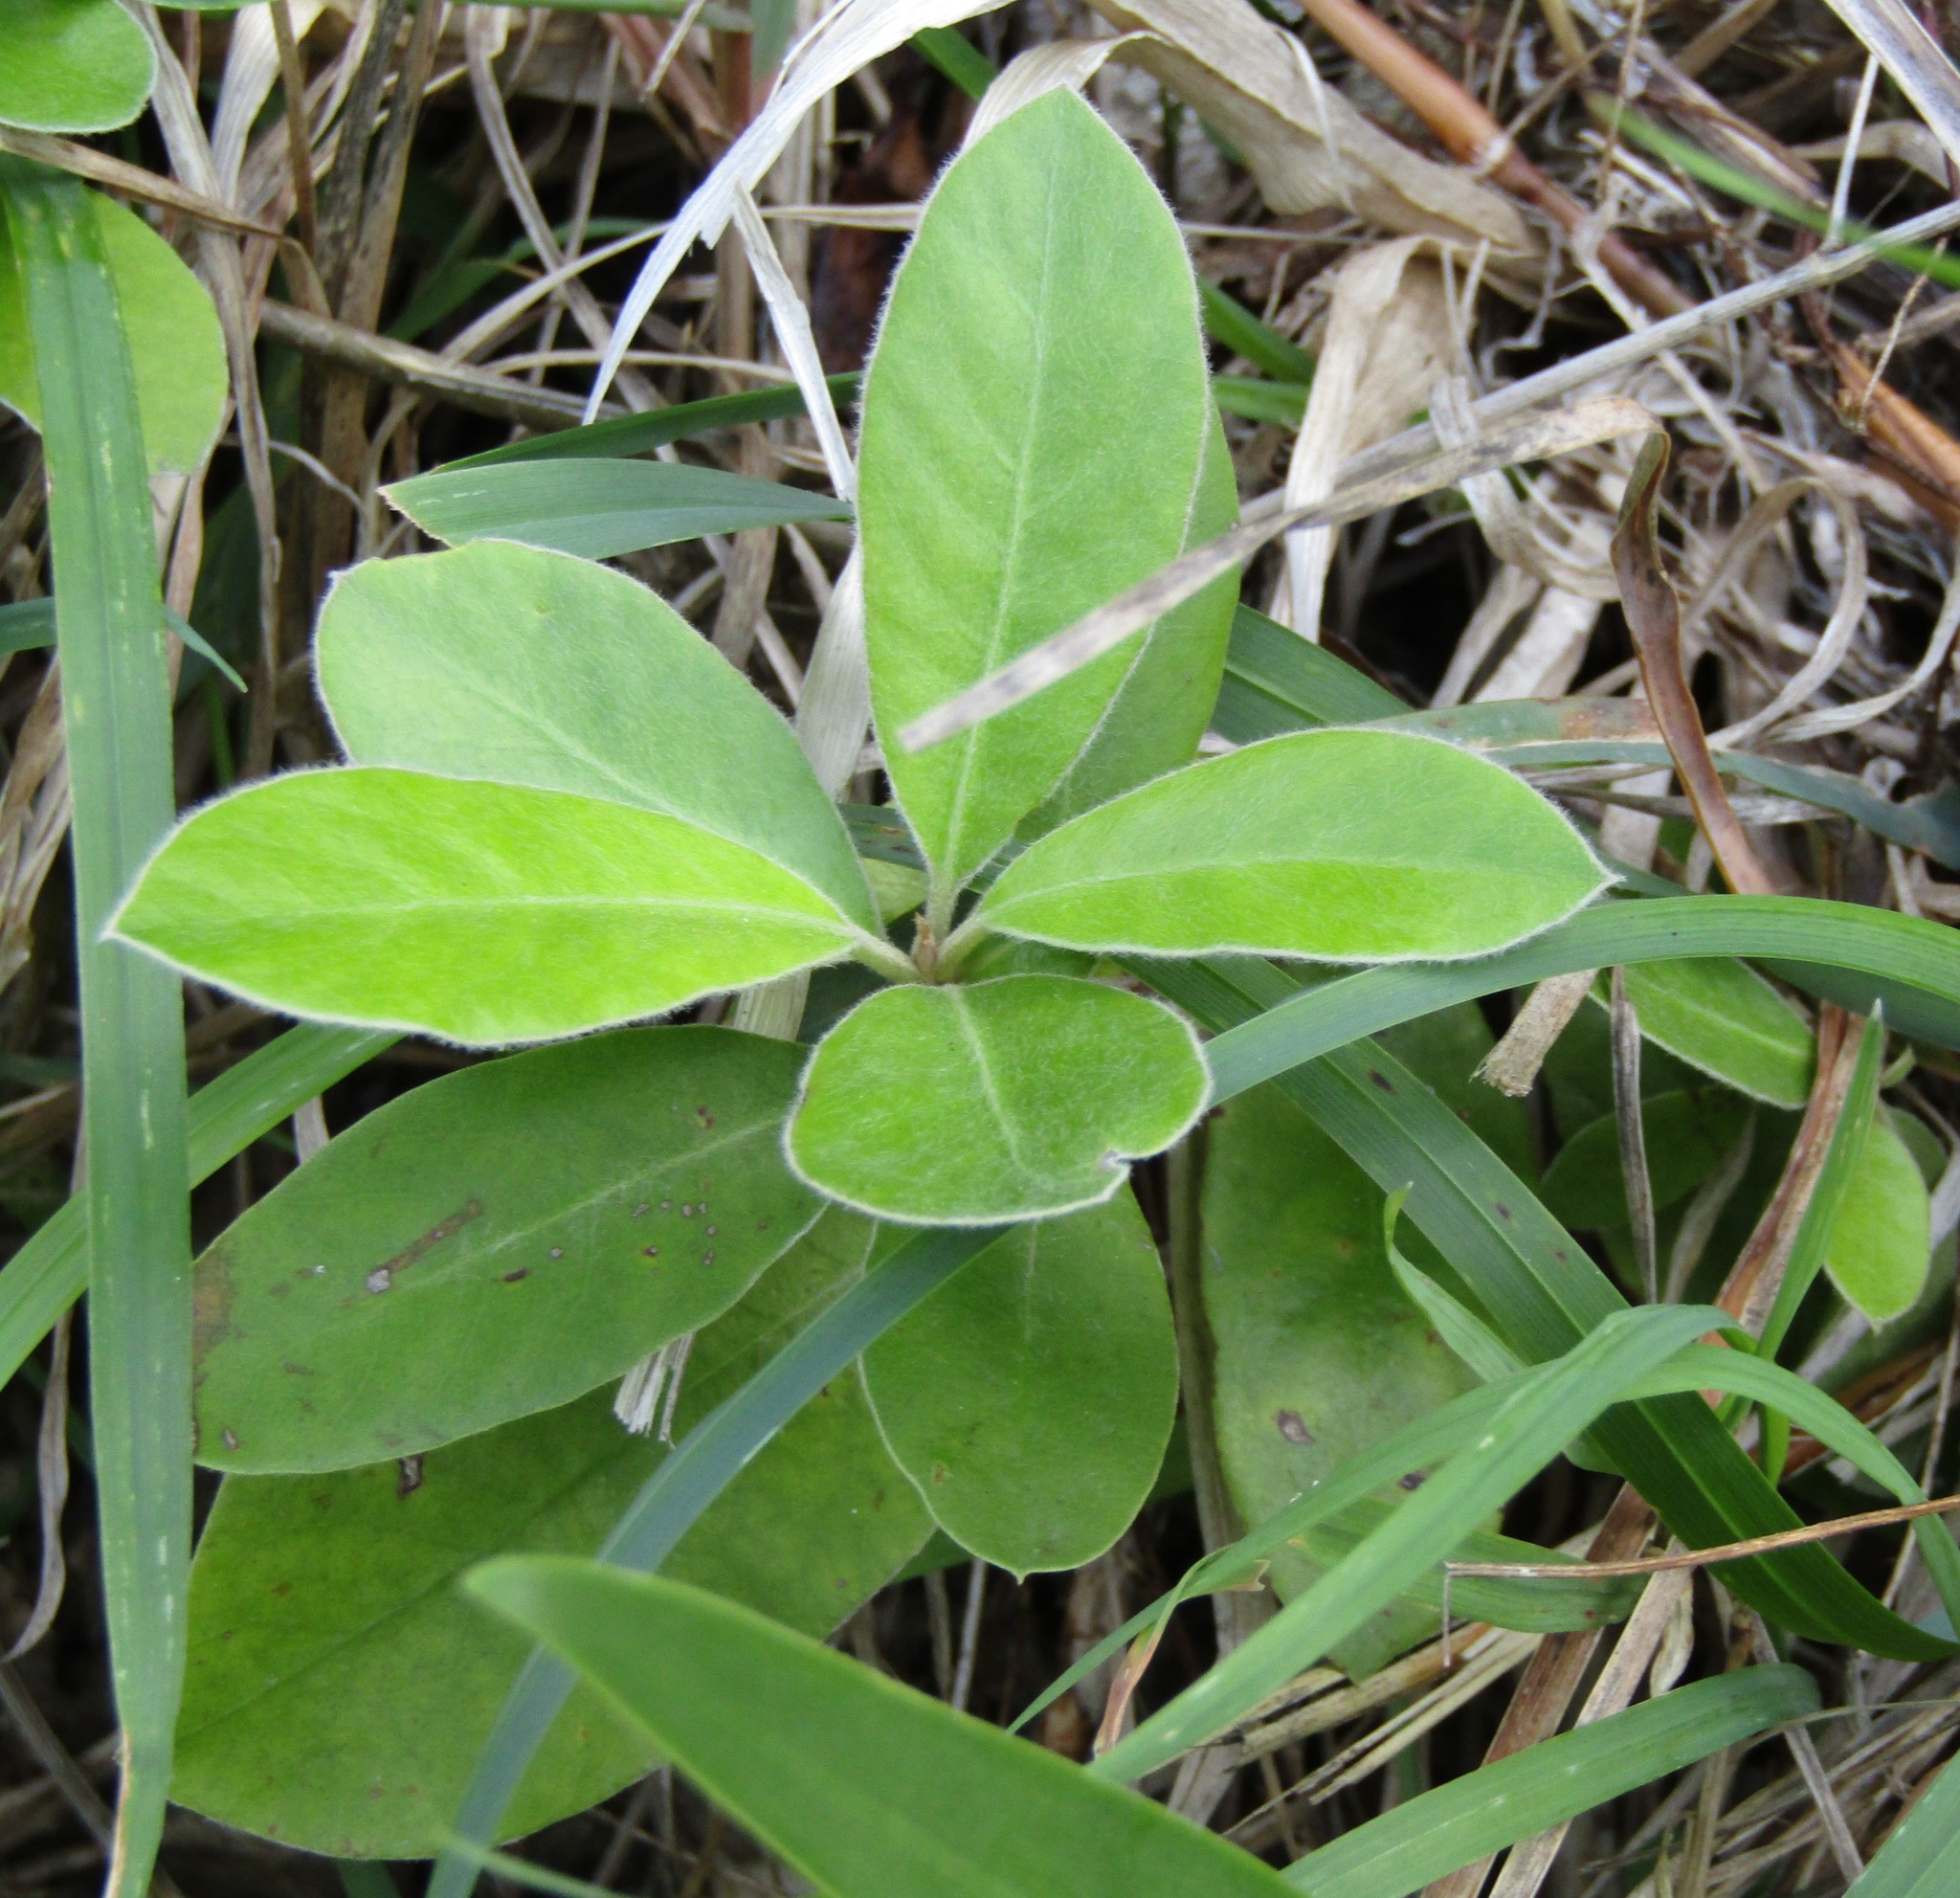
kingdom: Plantae
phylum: Tracheophyta
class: Magnoliopsida
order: Apiales
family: Pittosporaceae
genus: Pittosporum
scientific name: Pittosporum crassifolium
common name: Karo
